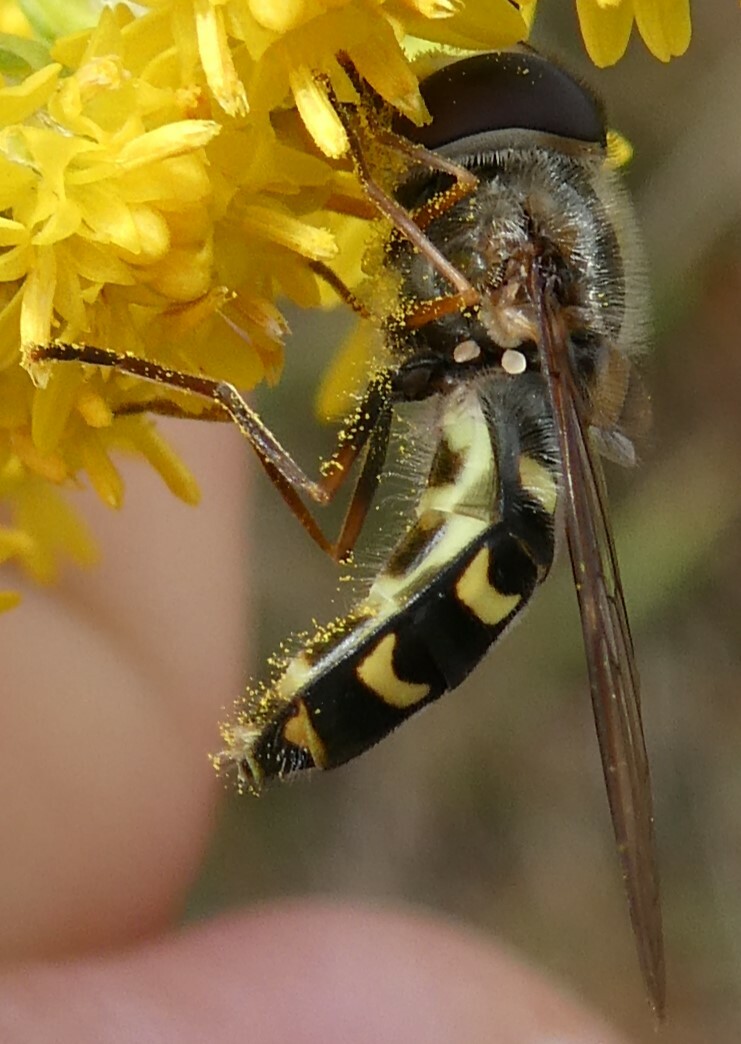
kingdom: Animalia
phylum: Arthropoda
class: Insecta
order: Diptera
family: Syrphidae
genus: Lapposyrphus
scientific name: Lapposyrphus lapponicus
